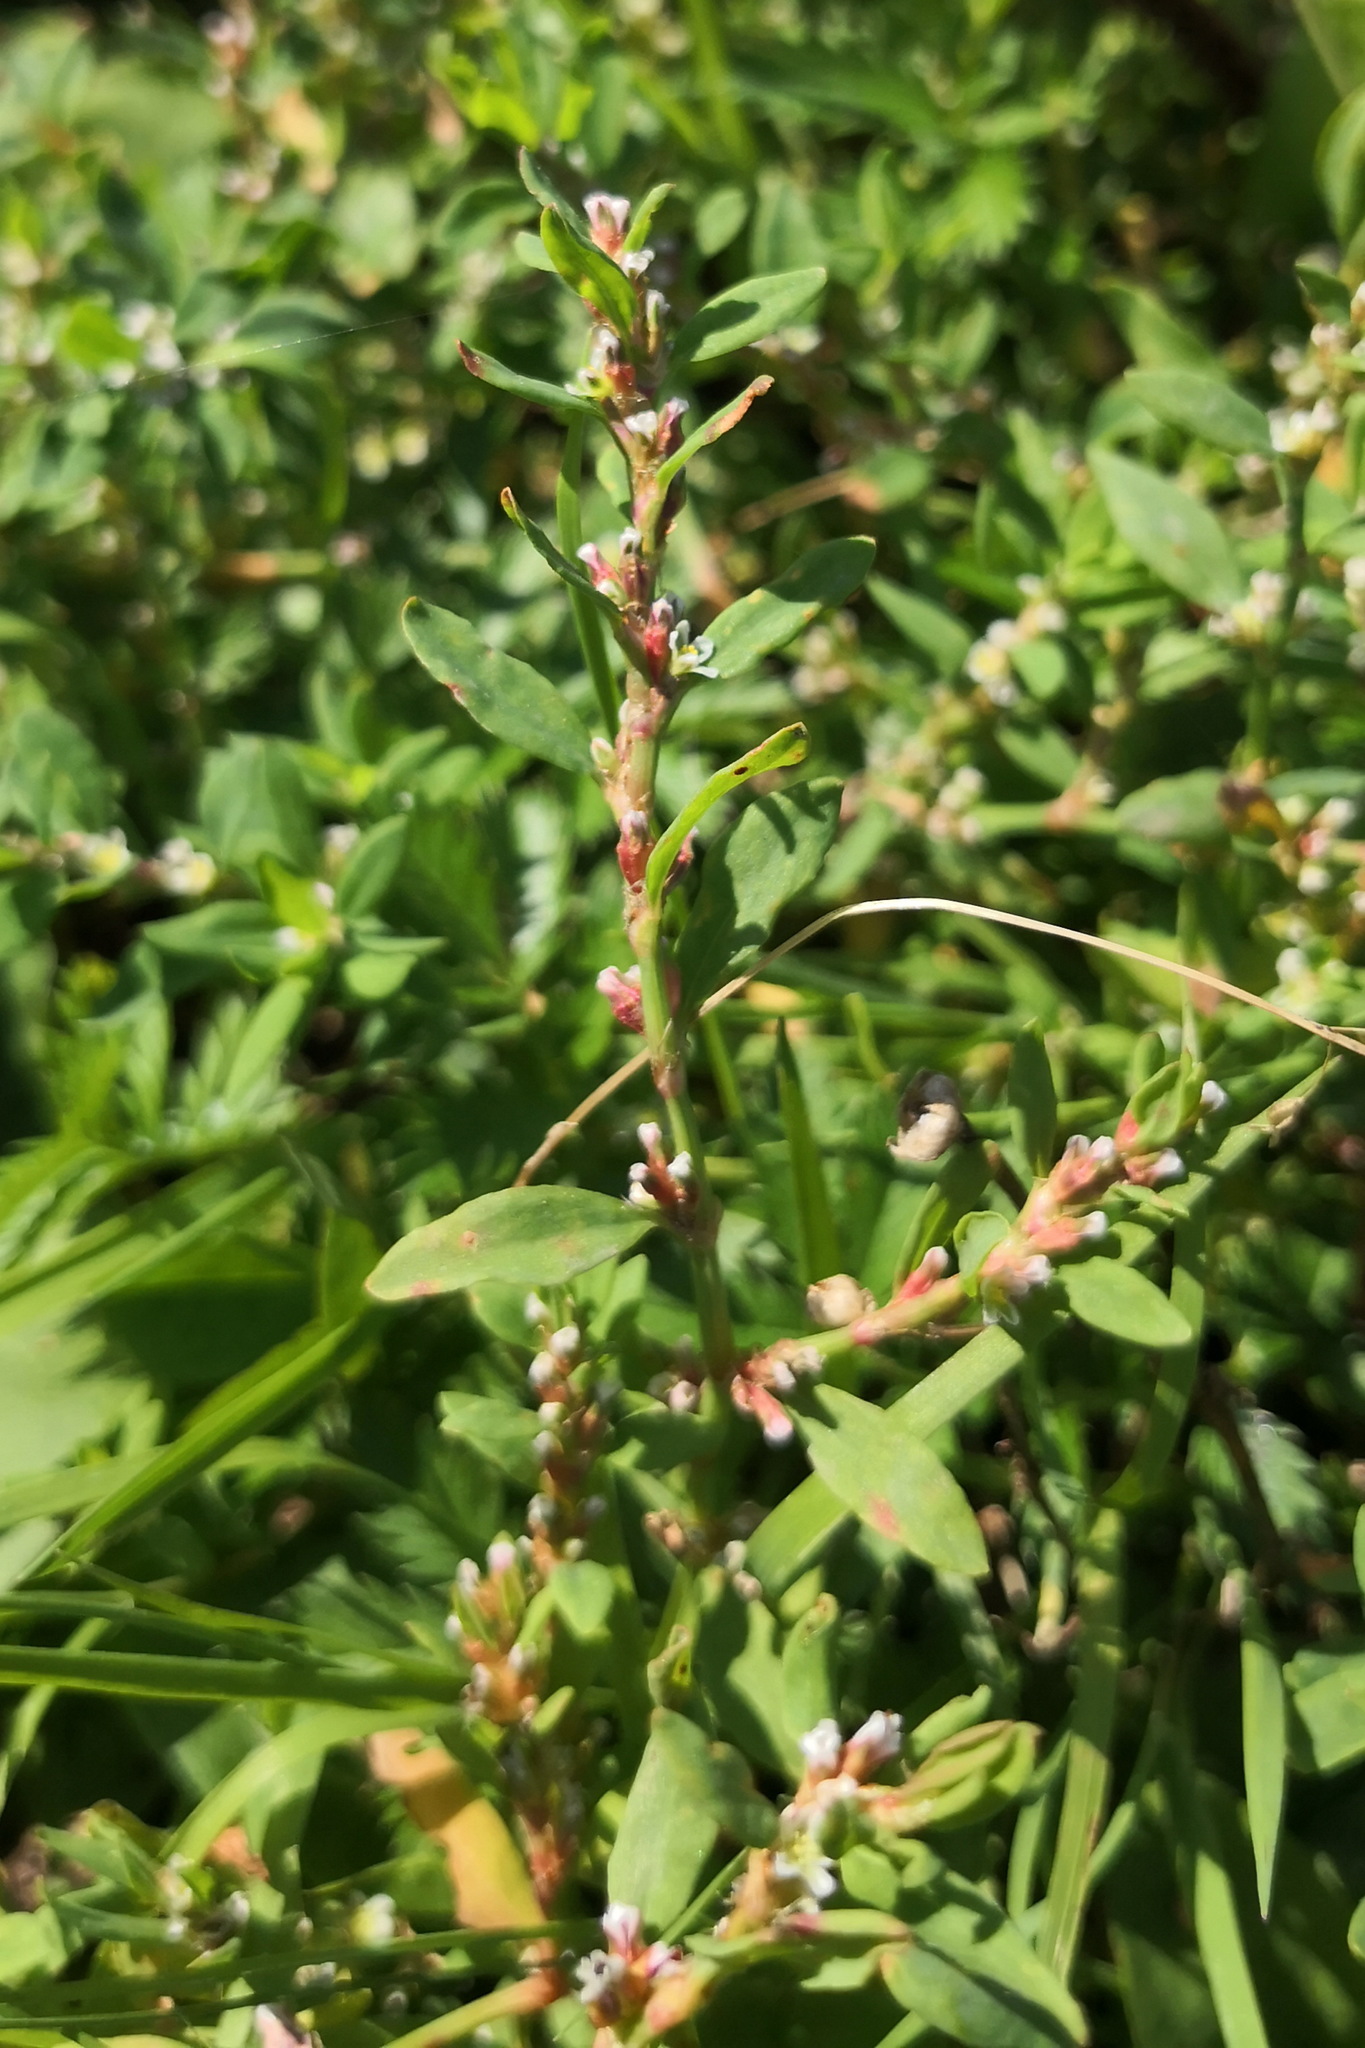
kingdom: Plantae
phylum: Tracheophyta
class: Magnoliopsida
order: Caryophyllales
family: Polygonaceae
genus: Polygonum
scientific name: Polygonum
